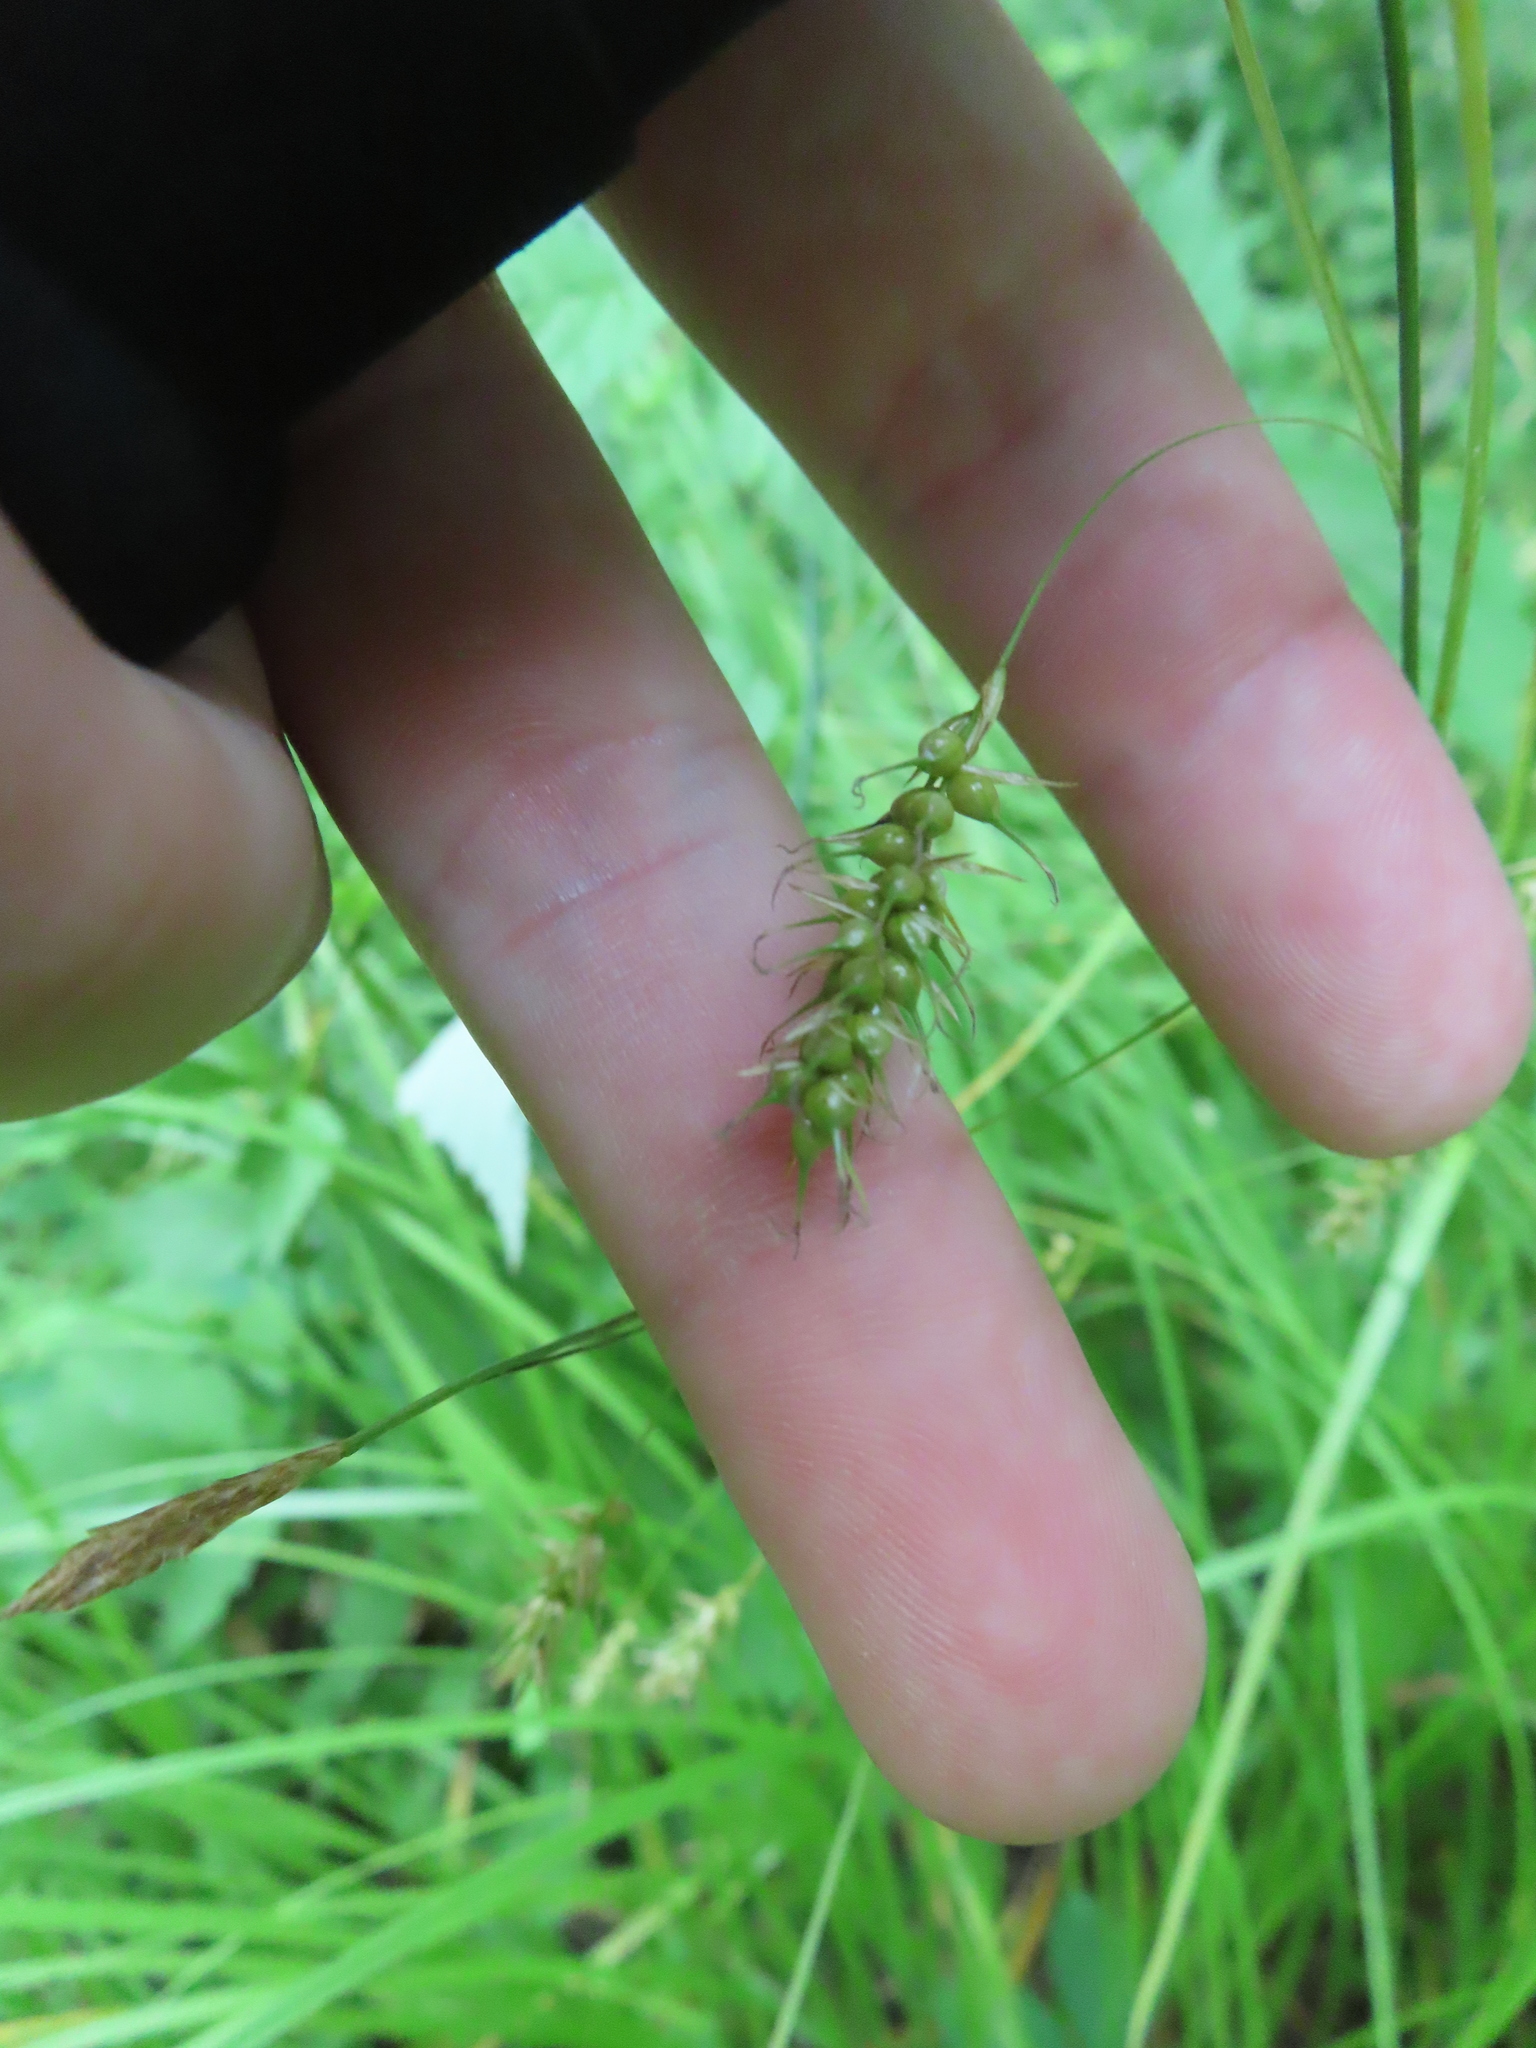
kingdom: Plantae
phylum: Tracheophyta
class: Liliopsida
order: Poales
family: Cyperaceae
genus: Carex
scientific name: Carex sprengelii
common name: Long-beaked sedge
